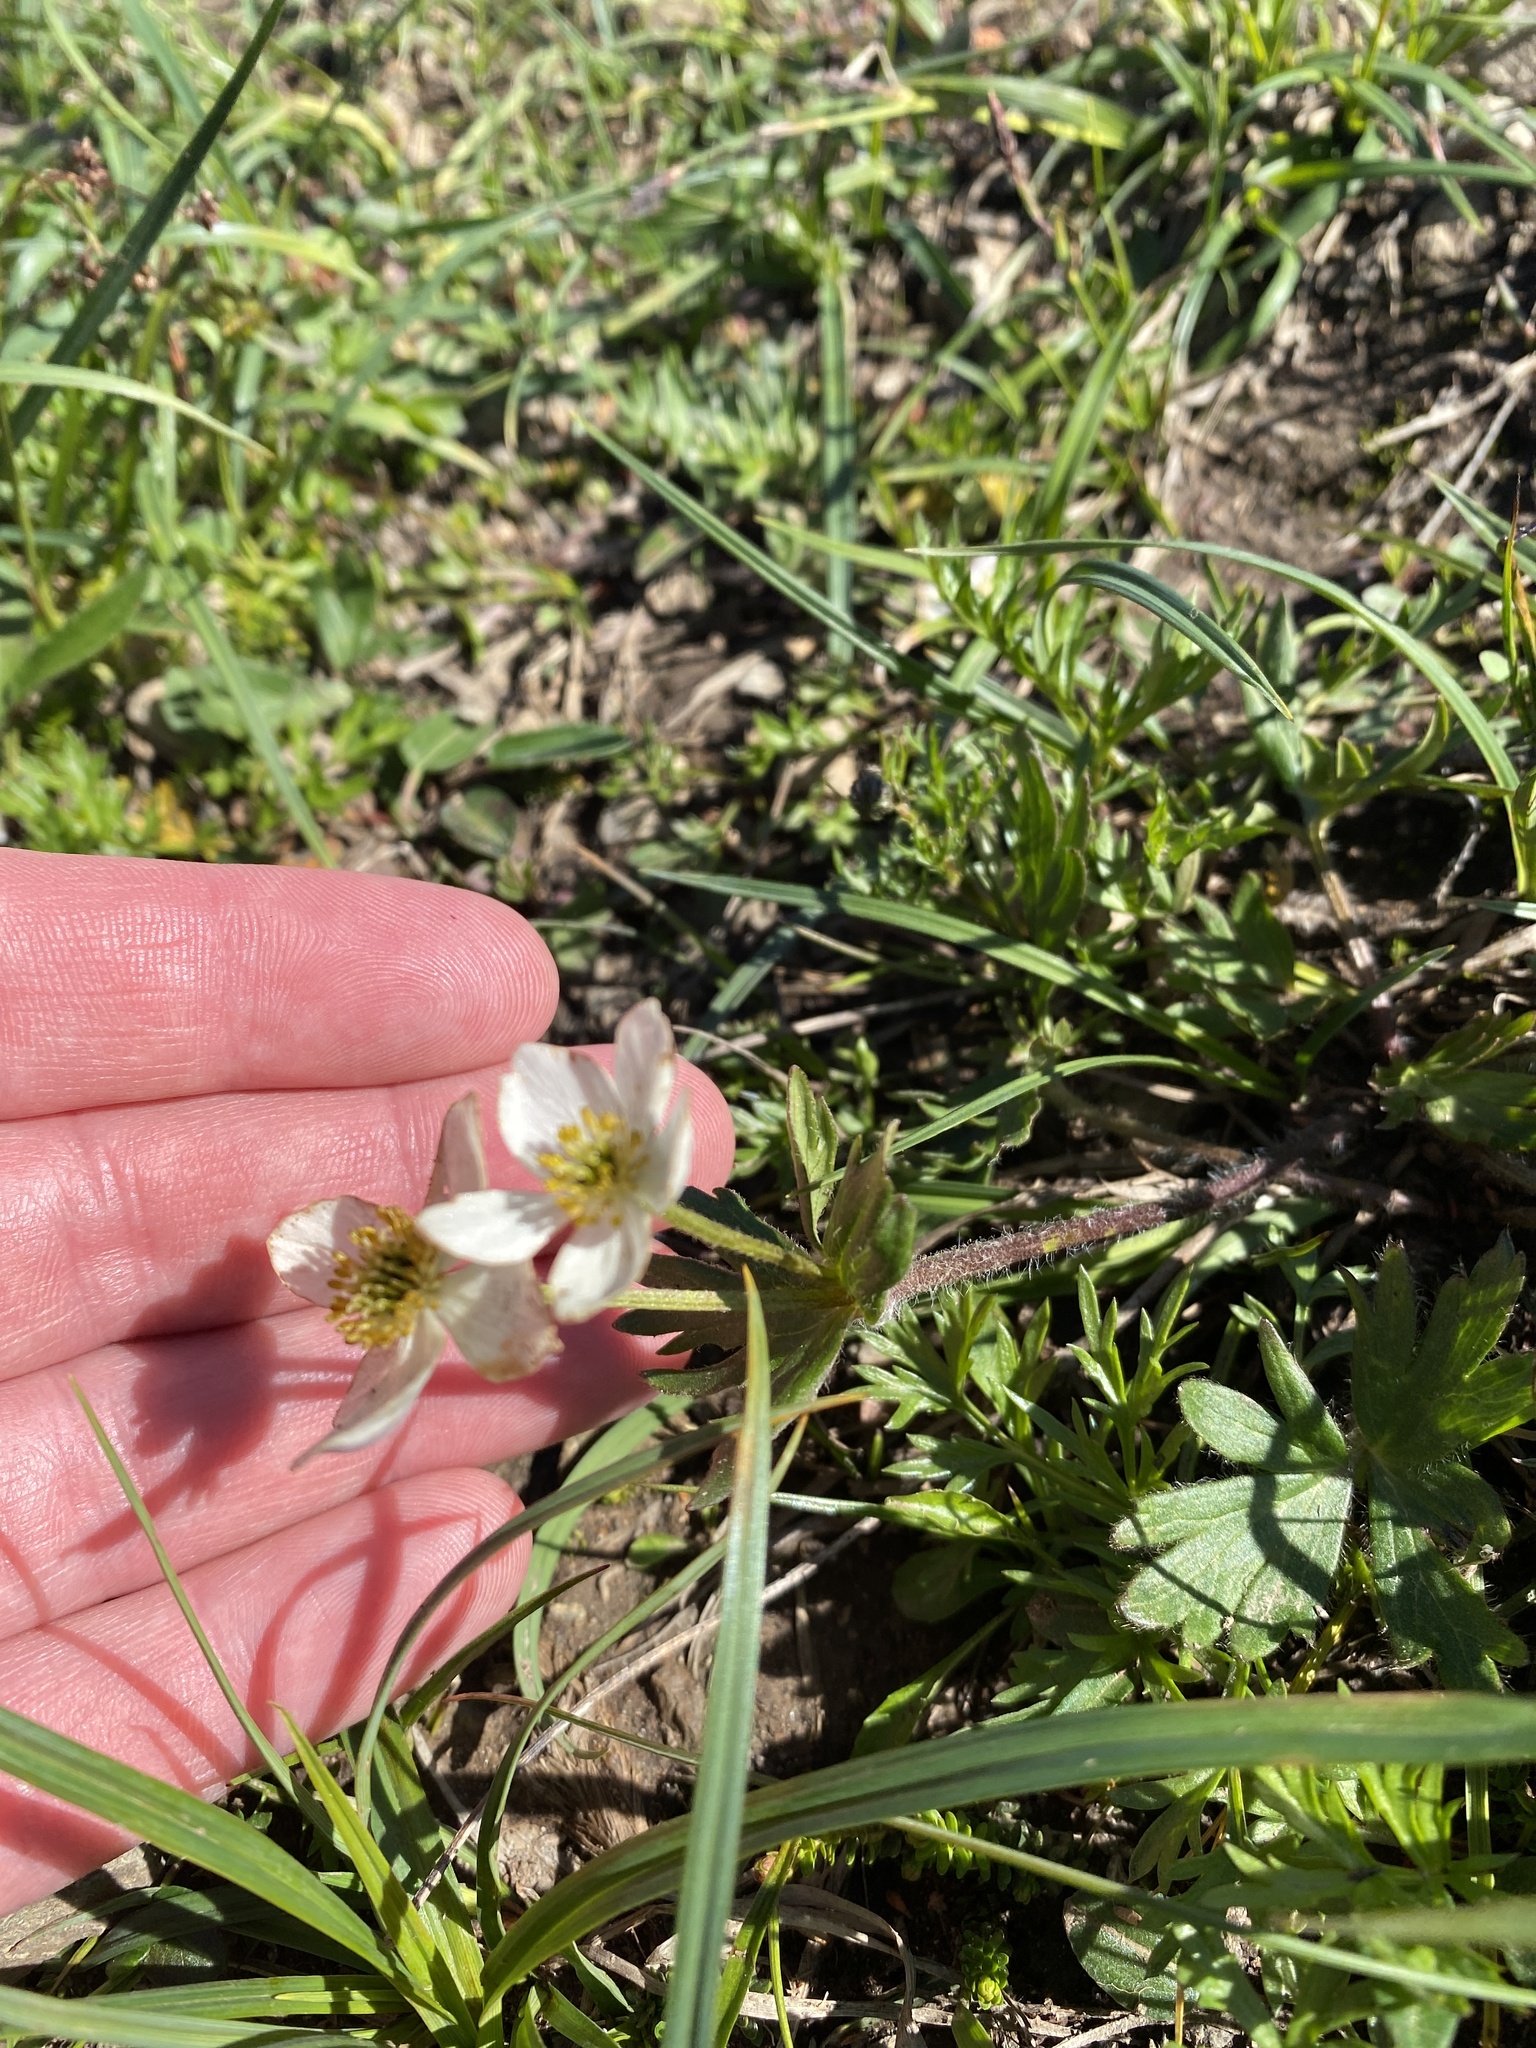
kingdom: Plantae
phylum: Tracheophyta
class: Magnoliopsida
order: Ranunculales
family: Ranunculaceae
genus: Anemonastrum
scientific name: Anemonastrum narcissiflorum
